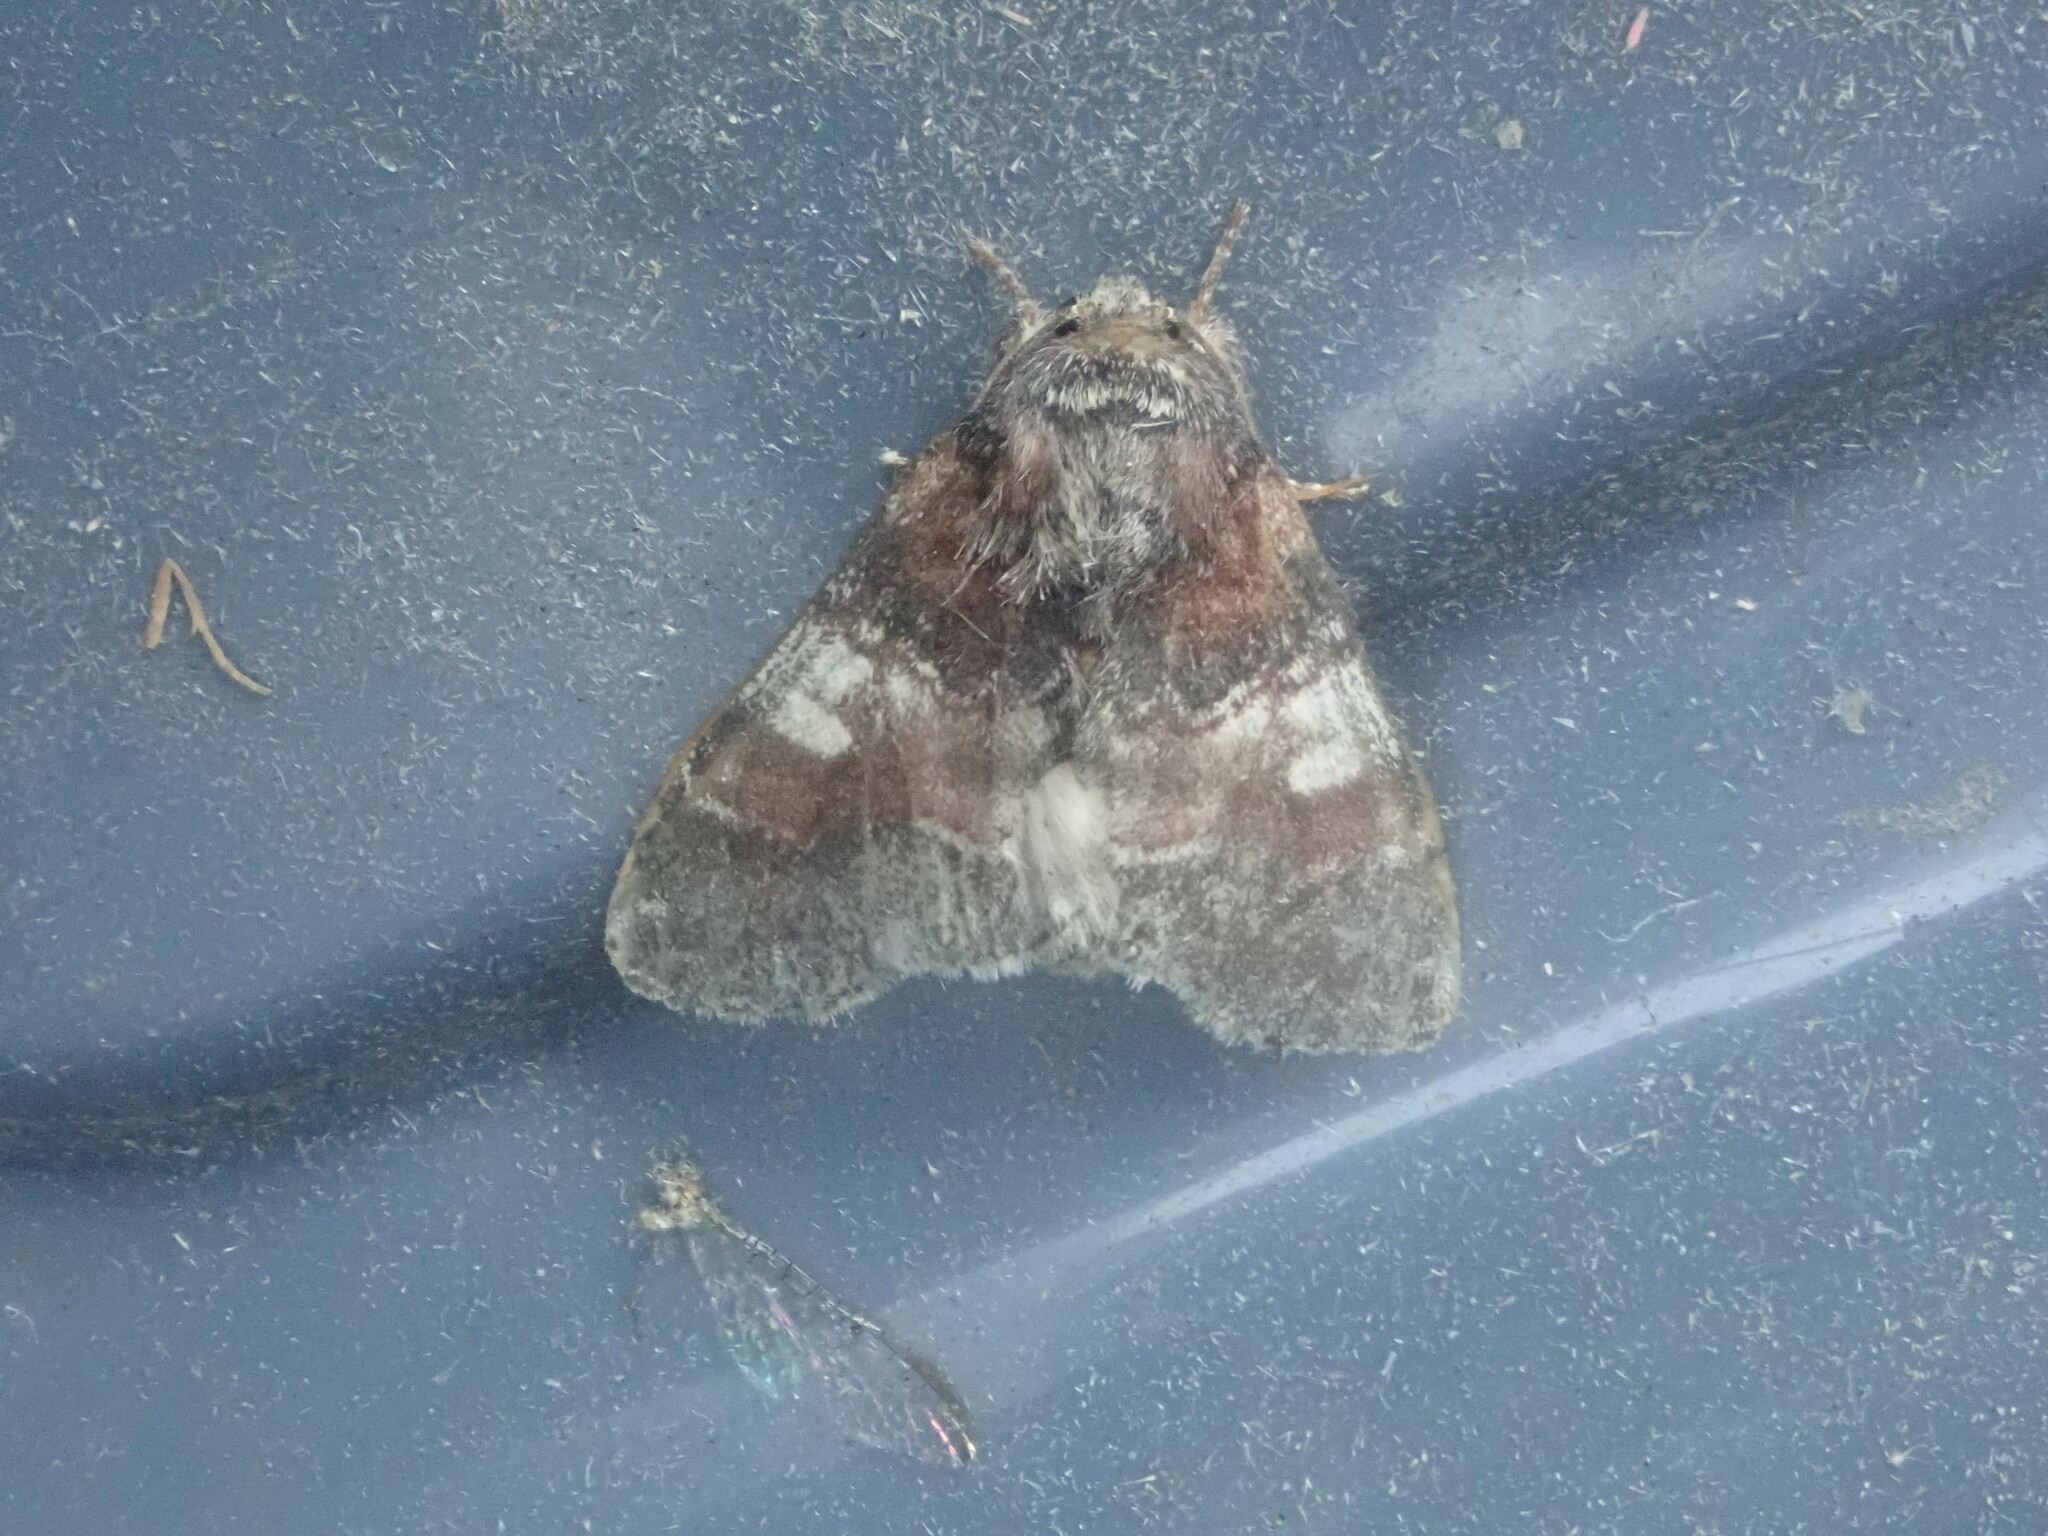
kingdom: Animalia
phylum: Arthropoda
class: Insecta
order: Lepidoptera
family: Notodontidae
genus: Peridea
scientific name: Peridea ferruginea
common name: Chocolate prominent
